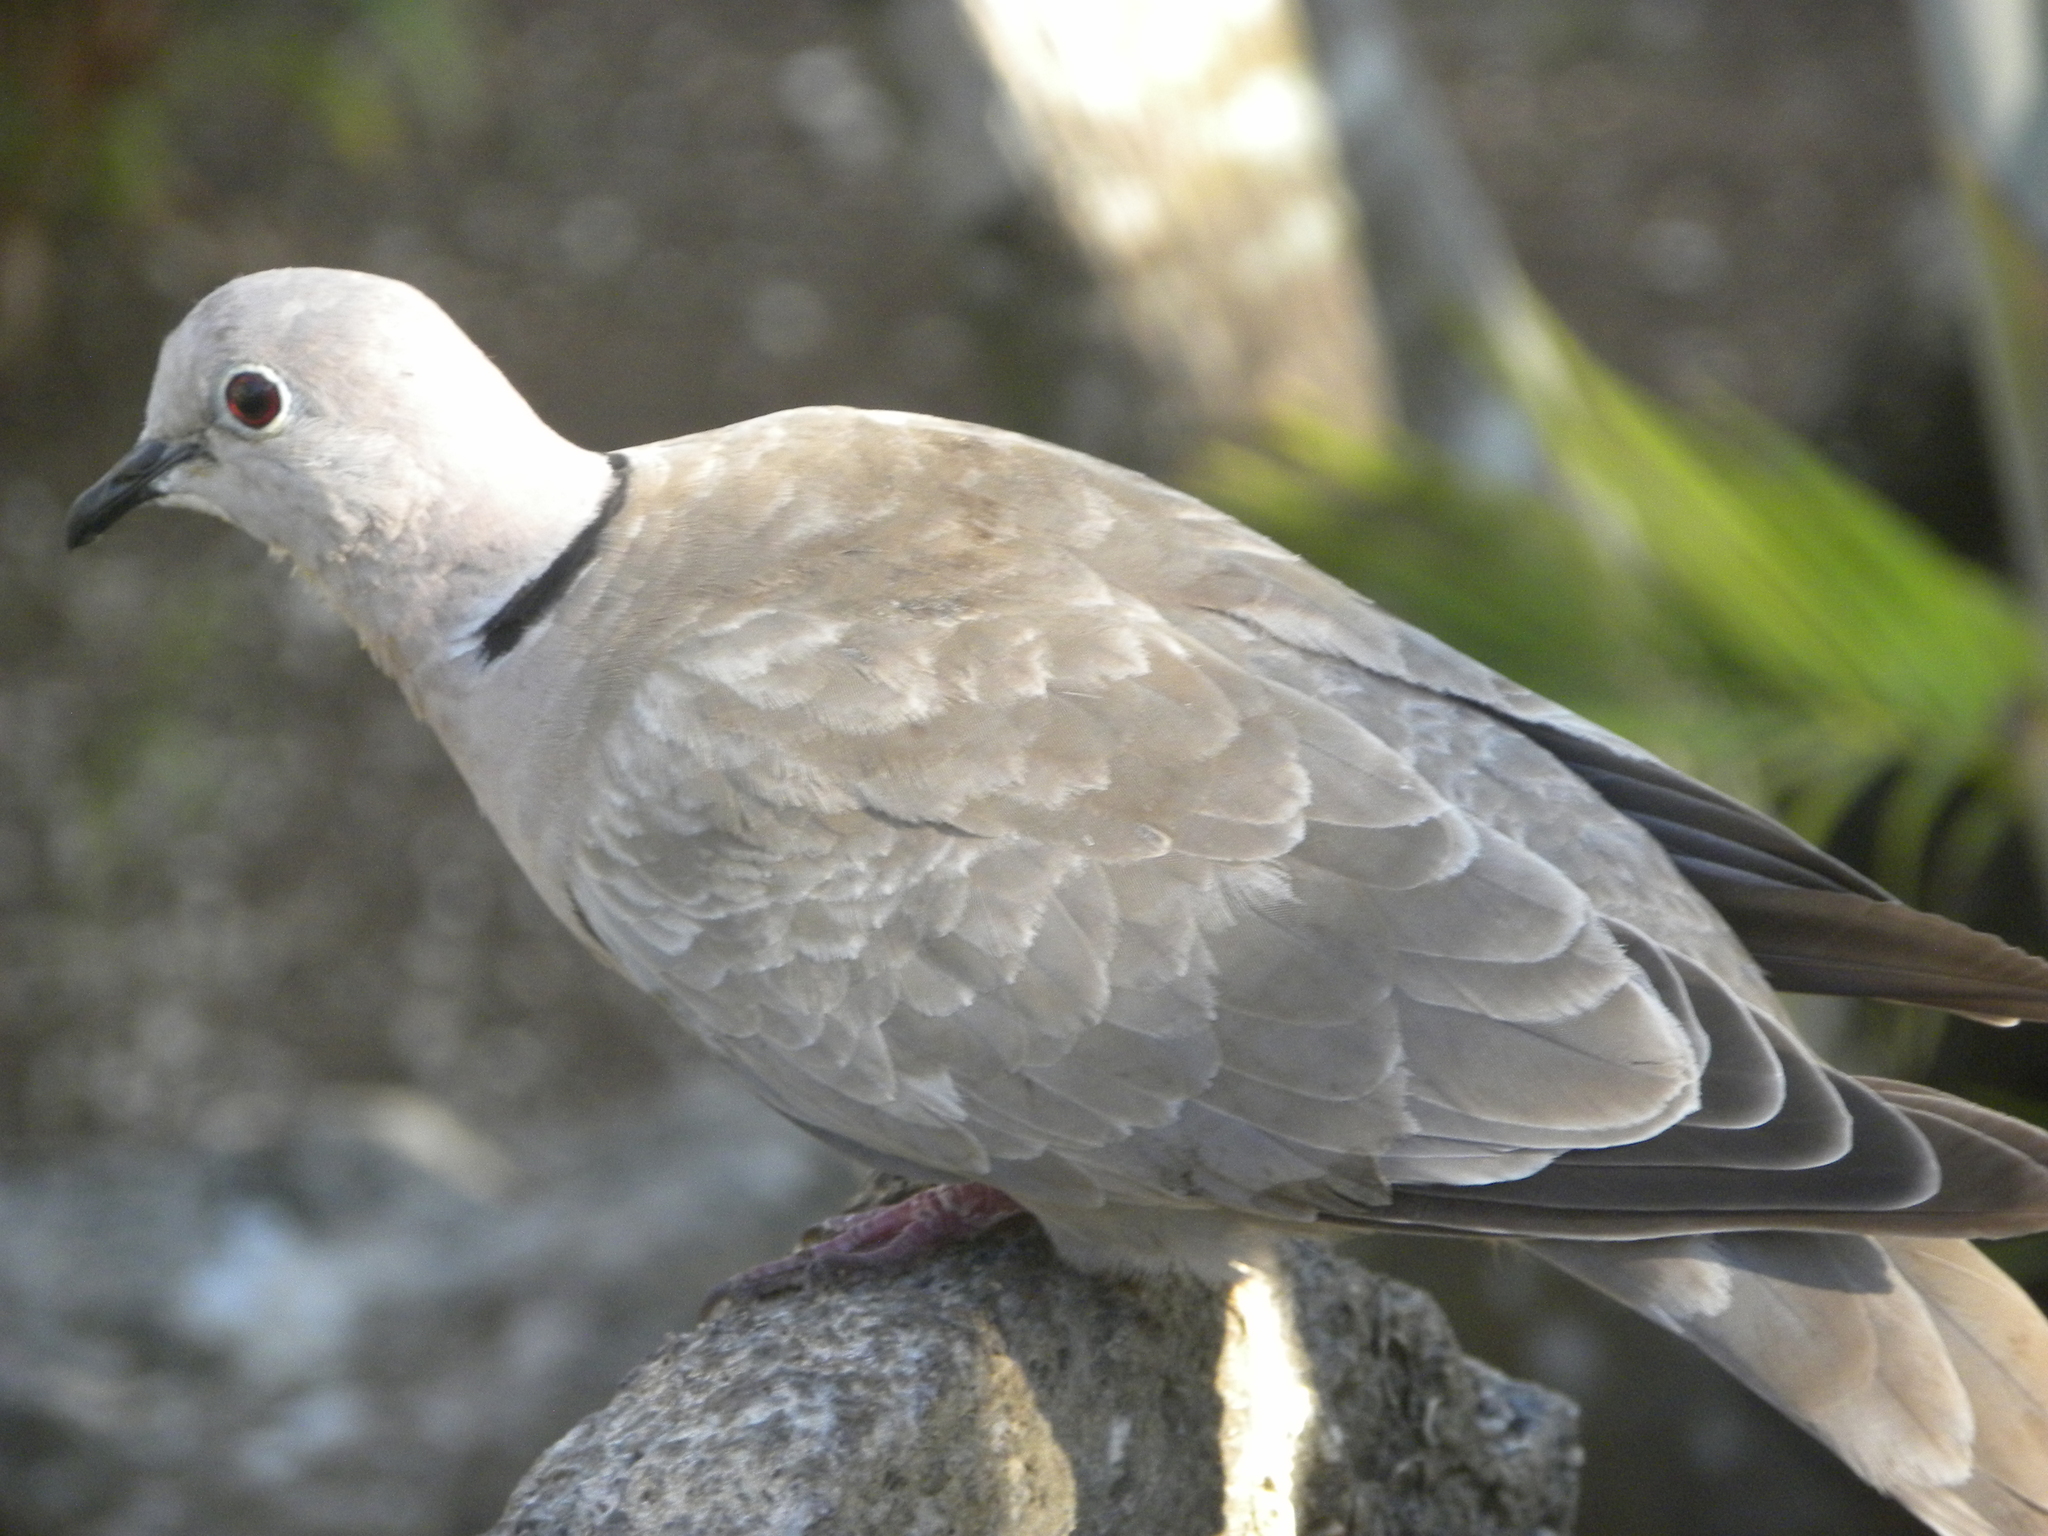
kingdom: Animalia
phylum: Chordata
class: Aves
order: Columbiformes
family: Columbidae
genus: Streptopelia
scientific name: Streptopelia decaocto
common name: Eurasian collared dove
